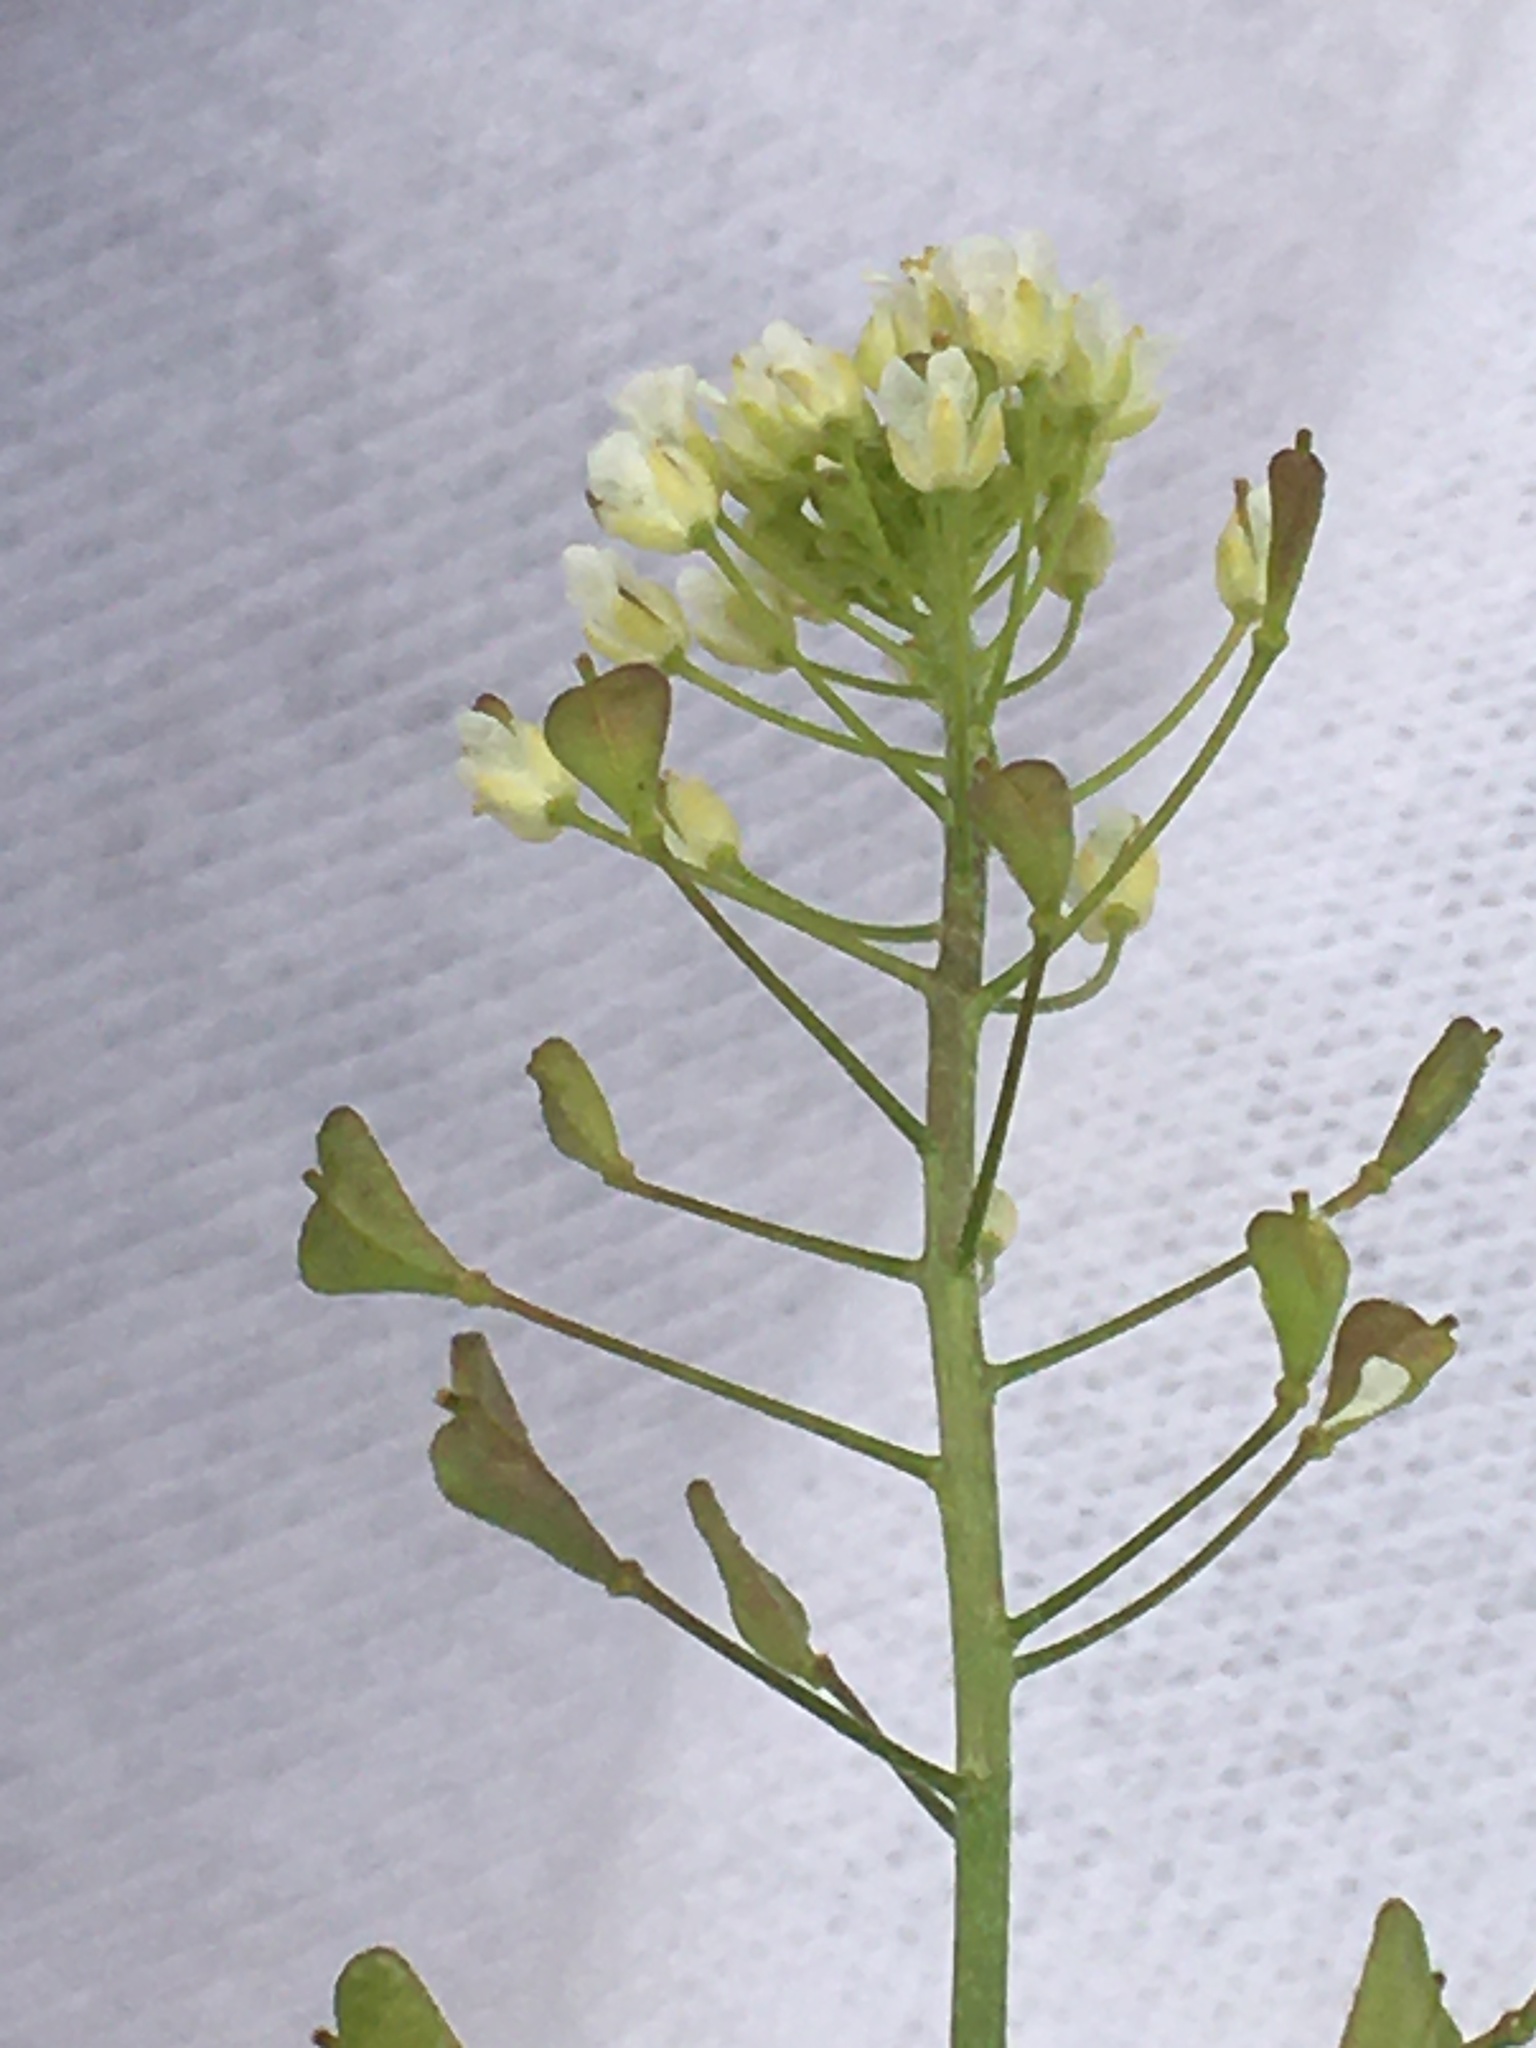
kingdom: Plantae
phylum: Tracheophyta
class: Magnoliopsida
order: Brassicales
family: Brassicaceae
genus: Capsella
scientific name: Capsella bursa-pastoris
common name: Shepherd's purse
